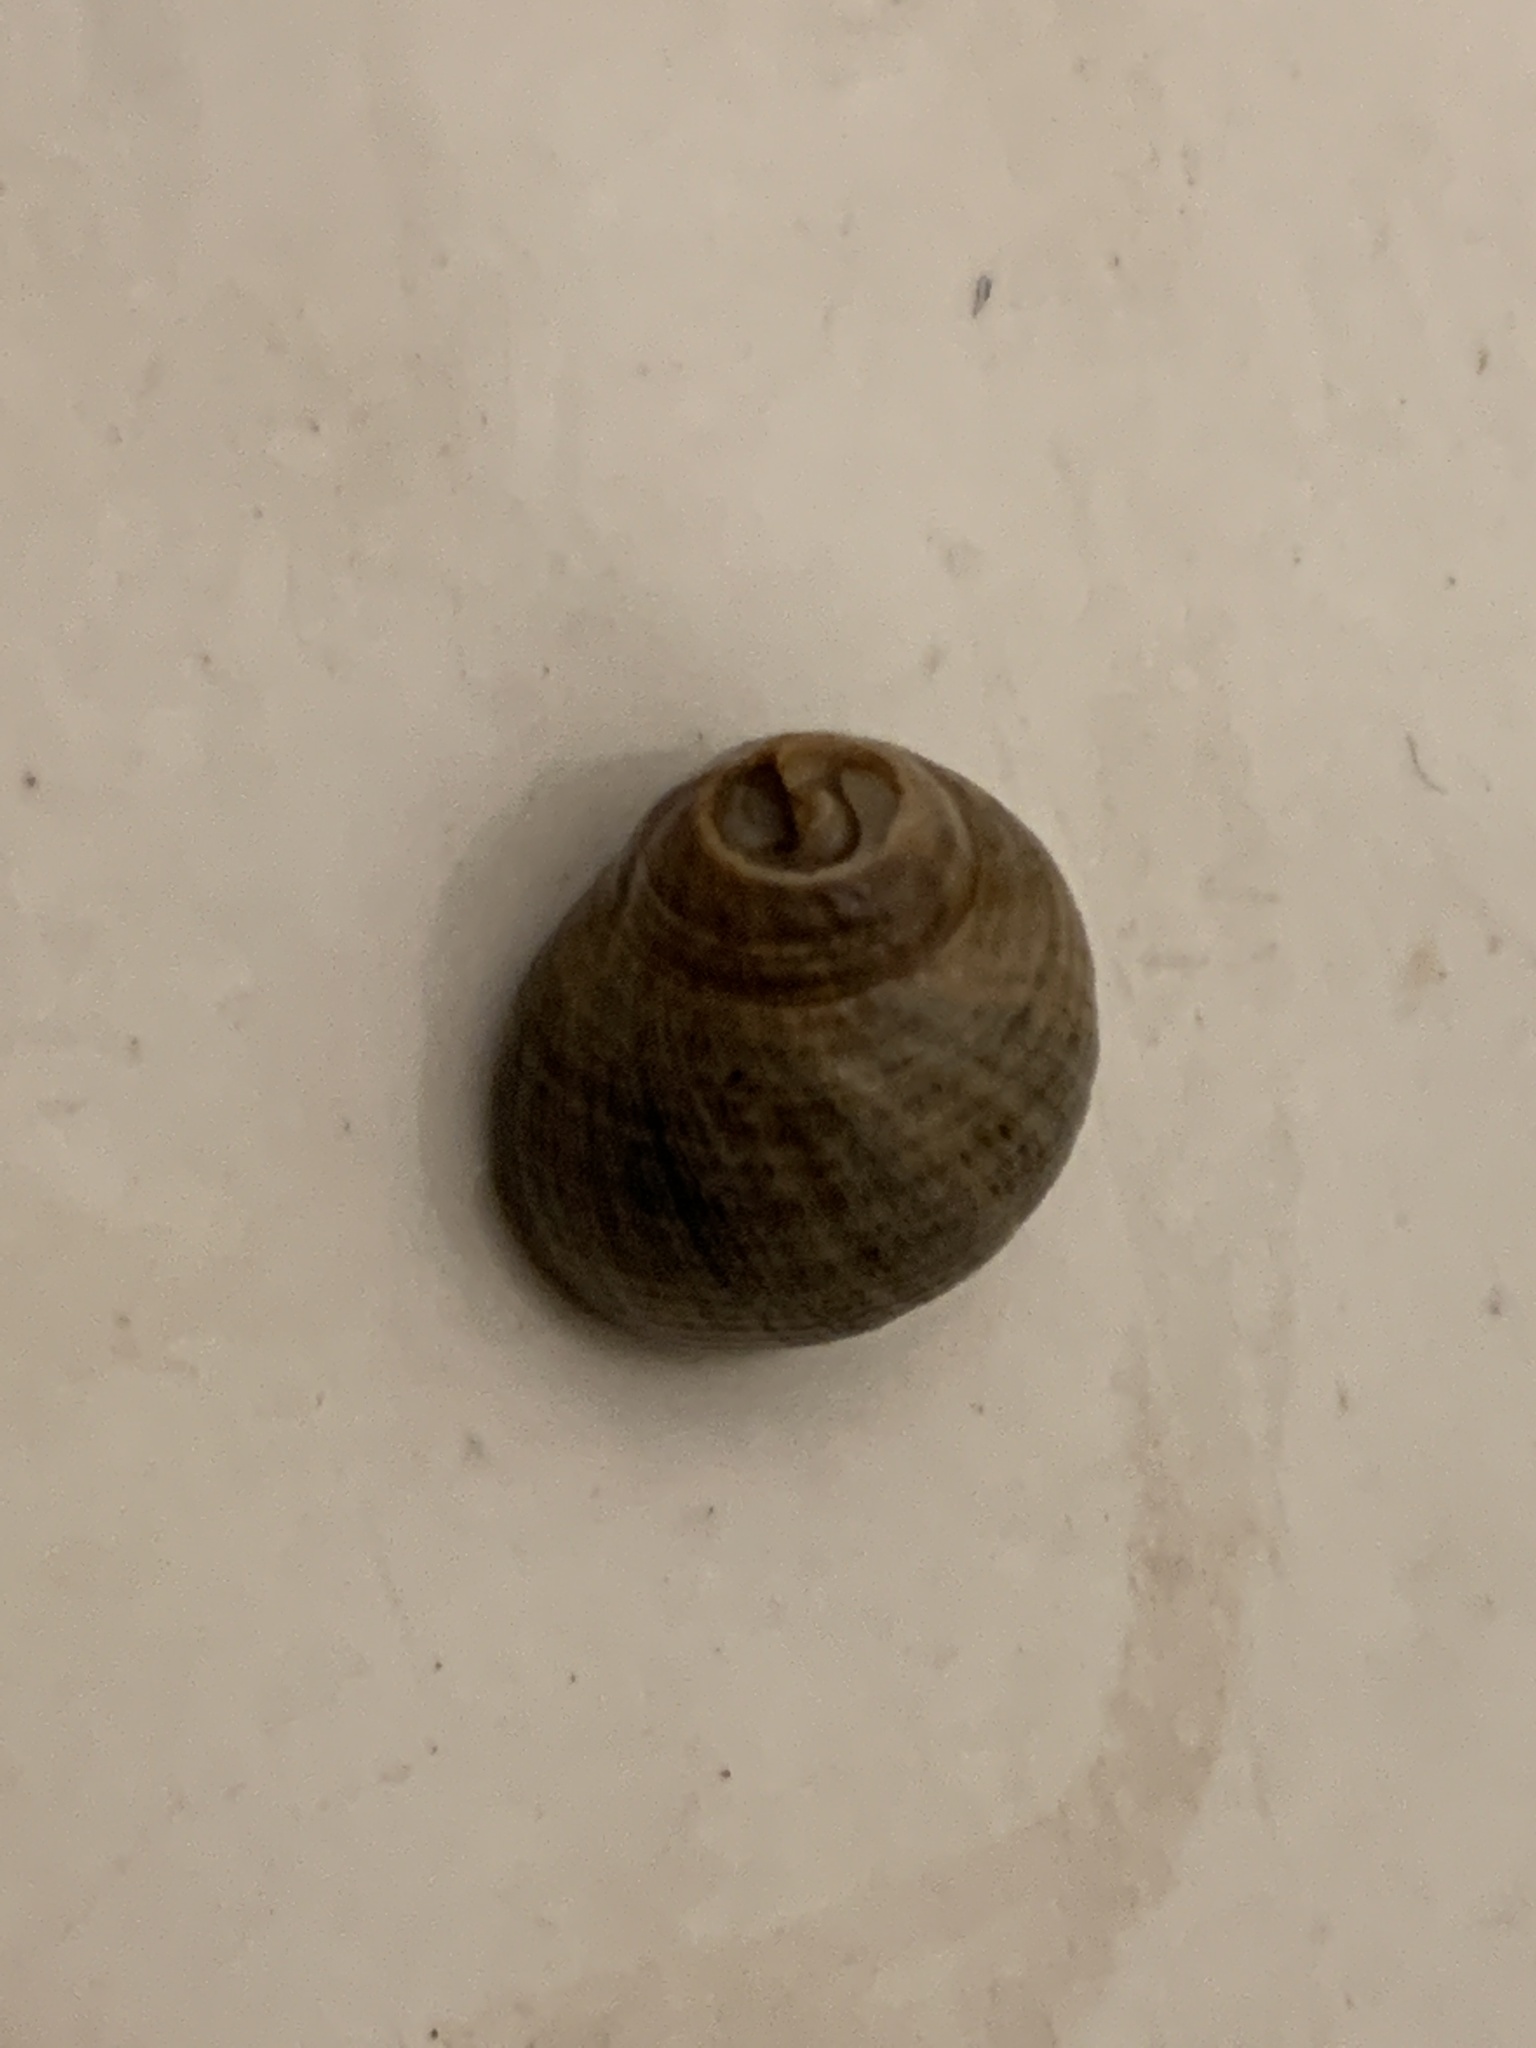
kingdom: Animalia
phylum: Mollusca
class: Gastropoda
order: Littorinimorpha
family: Littorinidae
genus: Littorina
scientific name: Littorina littorea
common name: Common periwinkle
